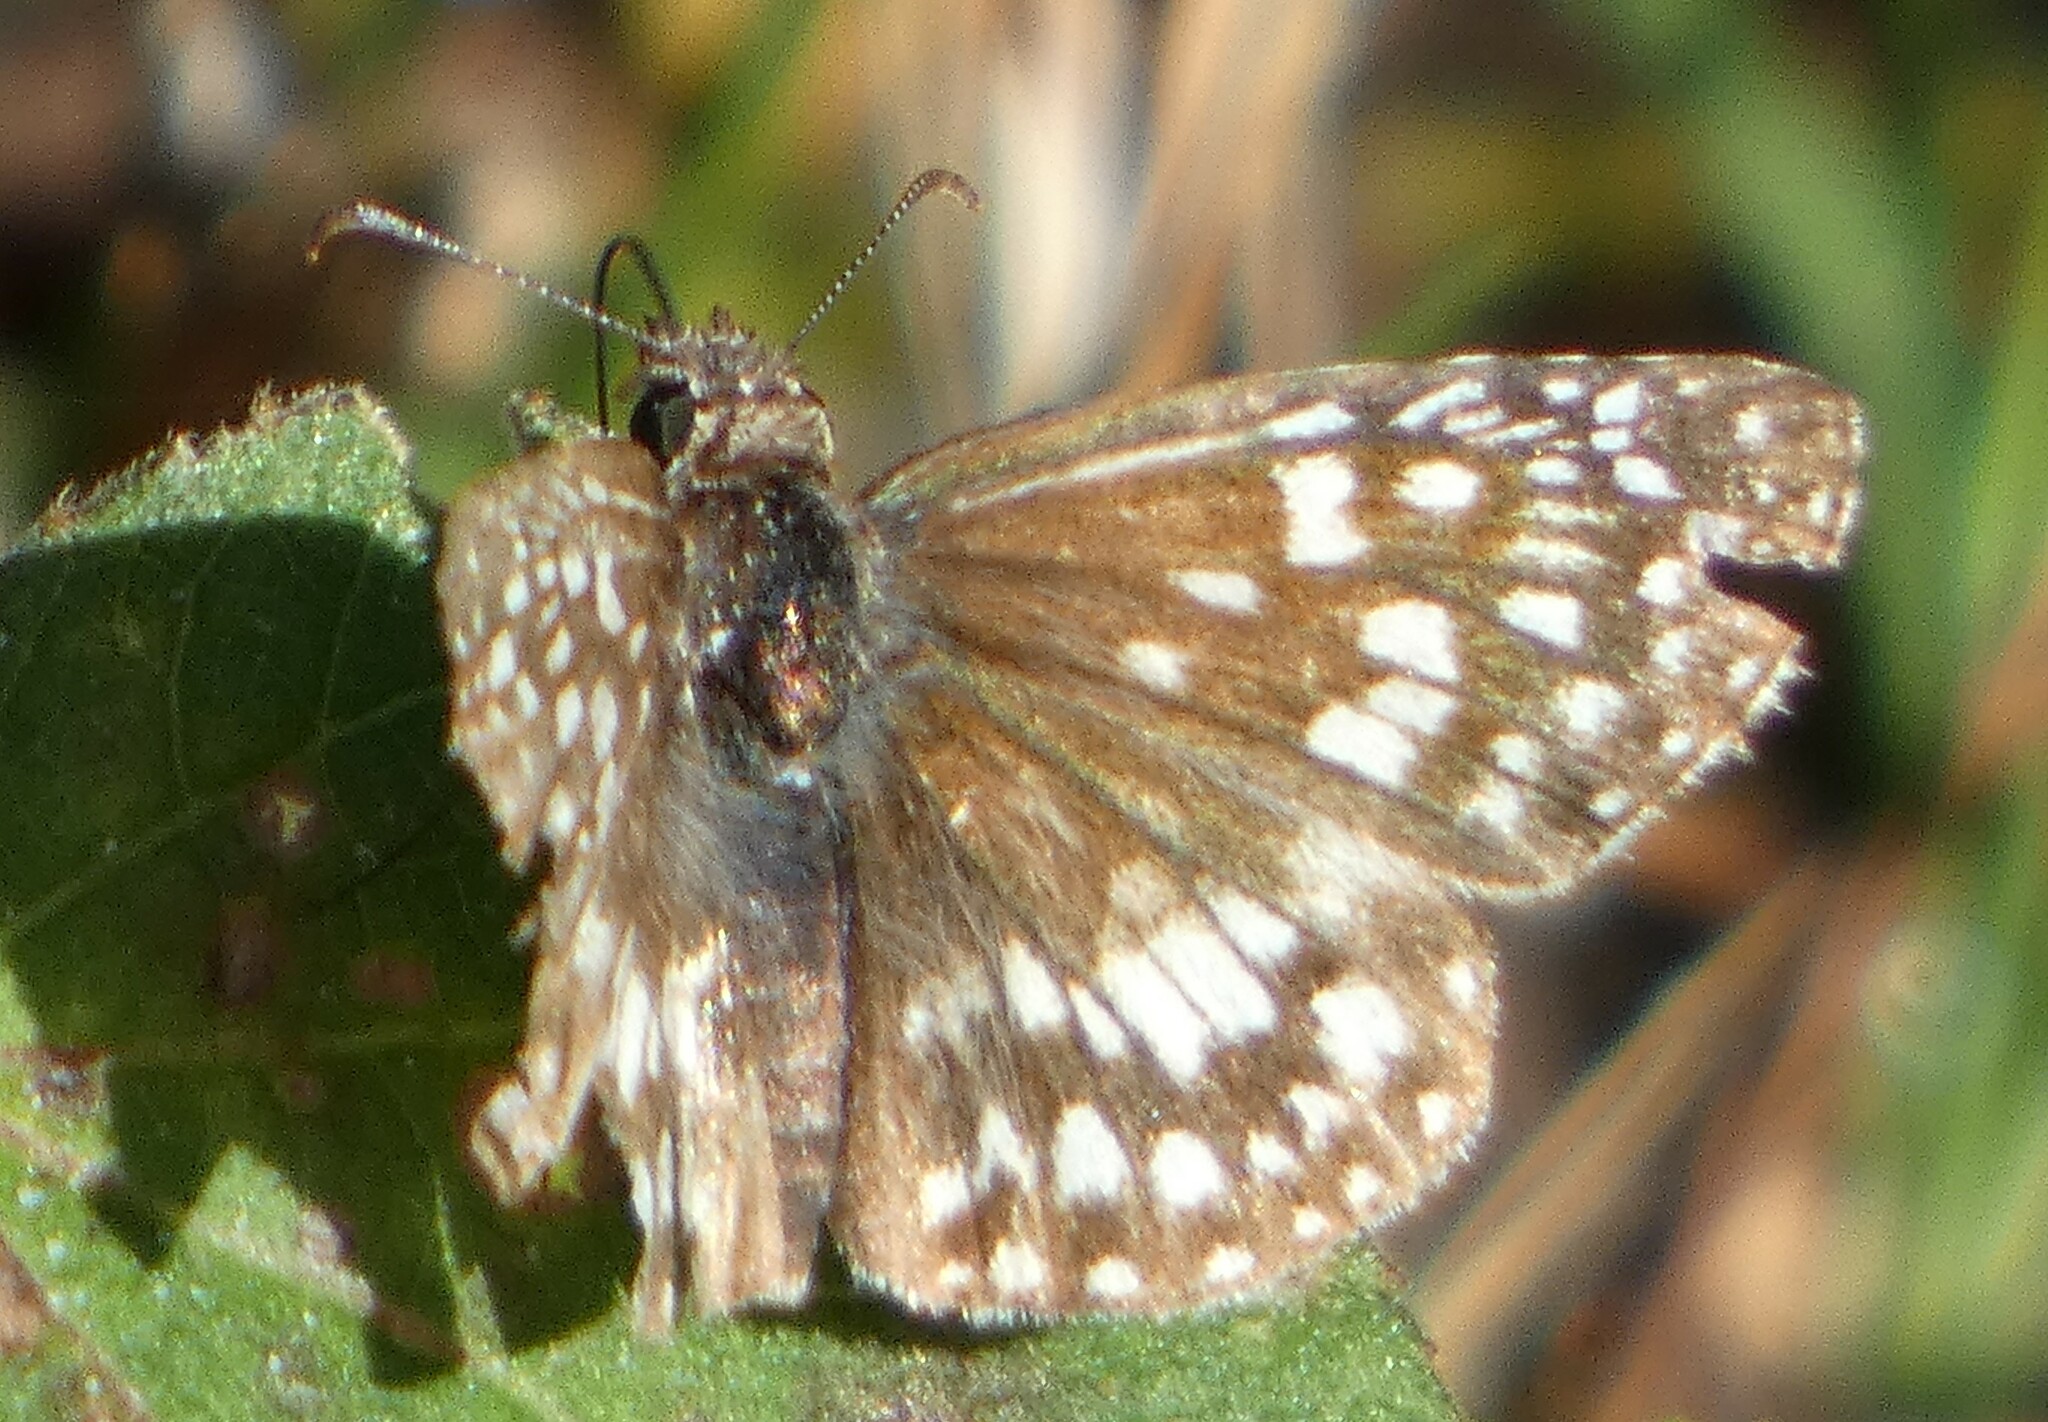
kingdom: Animalia
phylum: Arthropoda
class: Insecta
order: Lepidoptera
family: Hesperiidae
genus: Pyrgus
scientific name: Pyrgus oileus
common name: Tropical checkered-skipper
